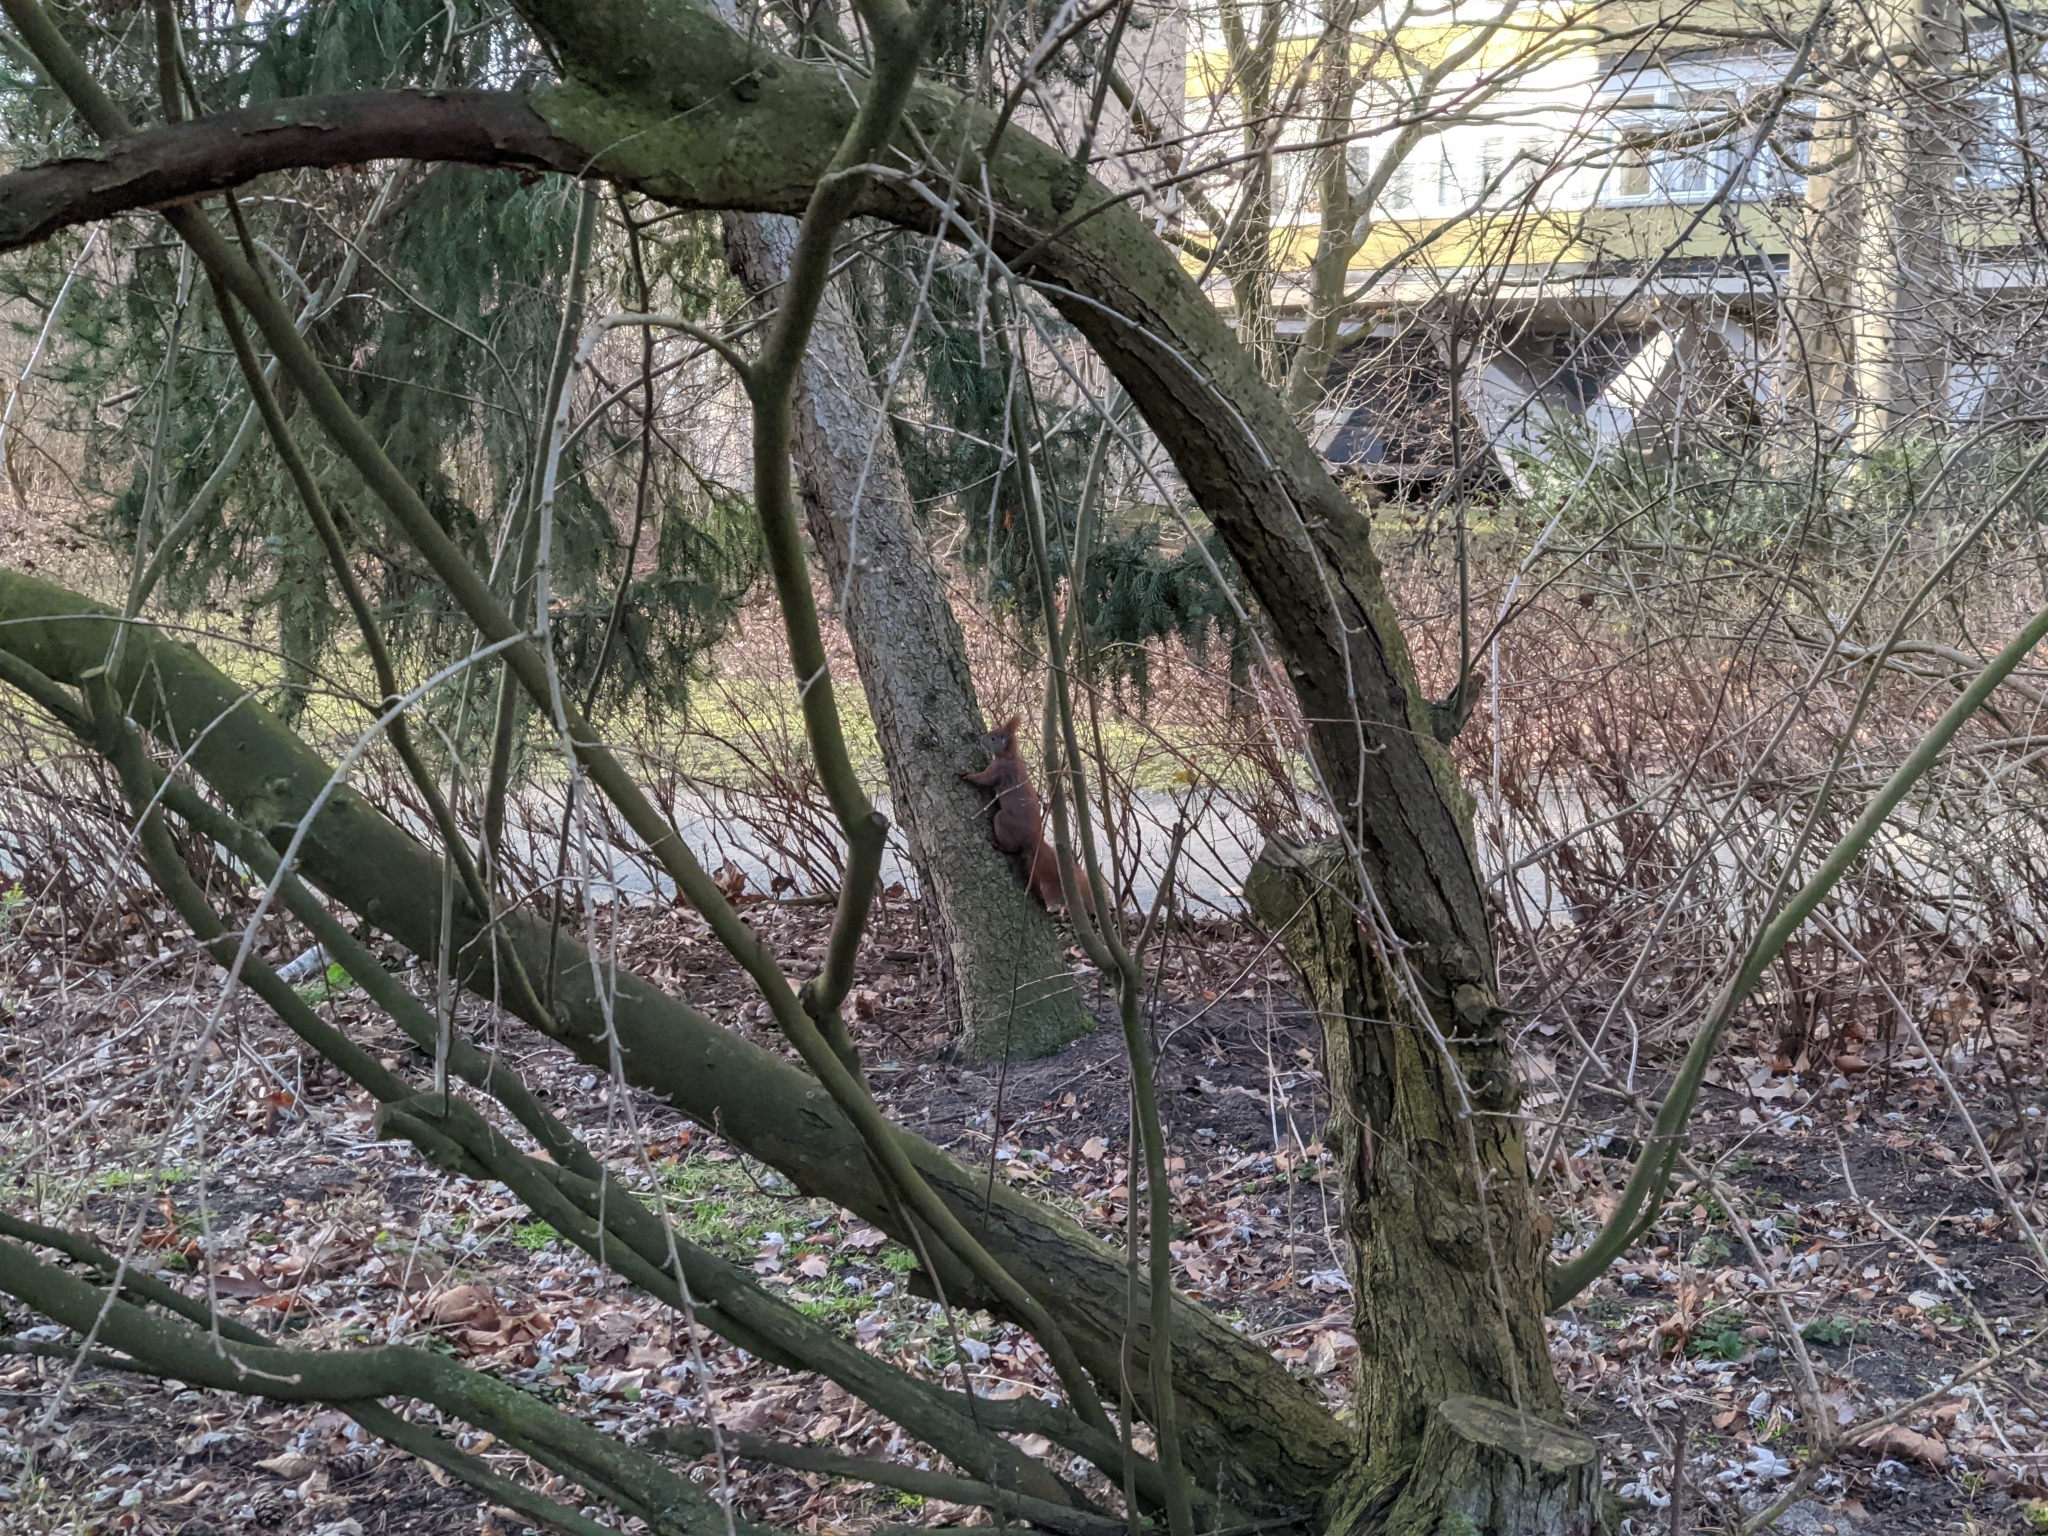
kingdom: Animalia
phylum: Chordata
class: Mammalia
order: Rodentia
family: Sciuridae
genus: Sciurus
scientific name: Sciurus vulgaris
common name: Eurasian red squirrel
